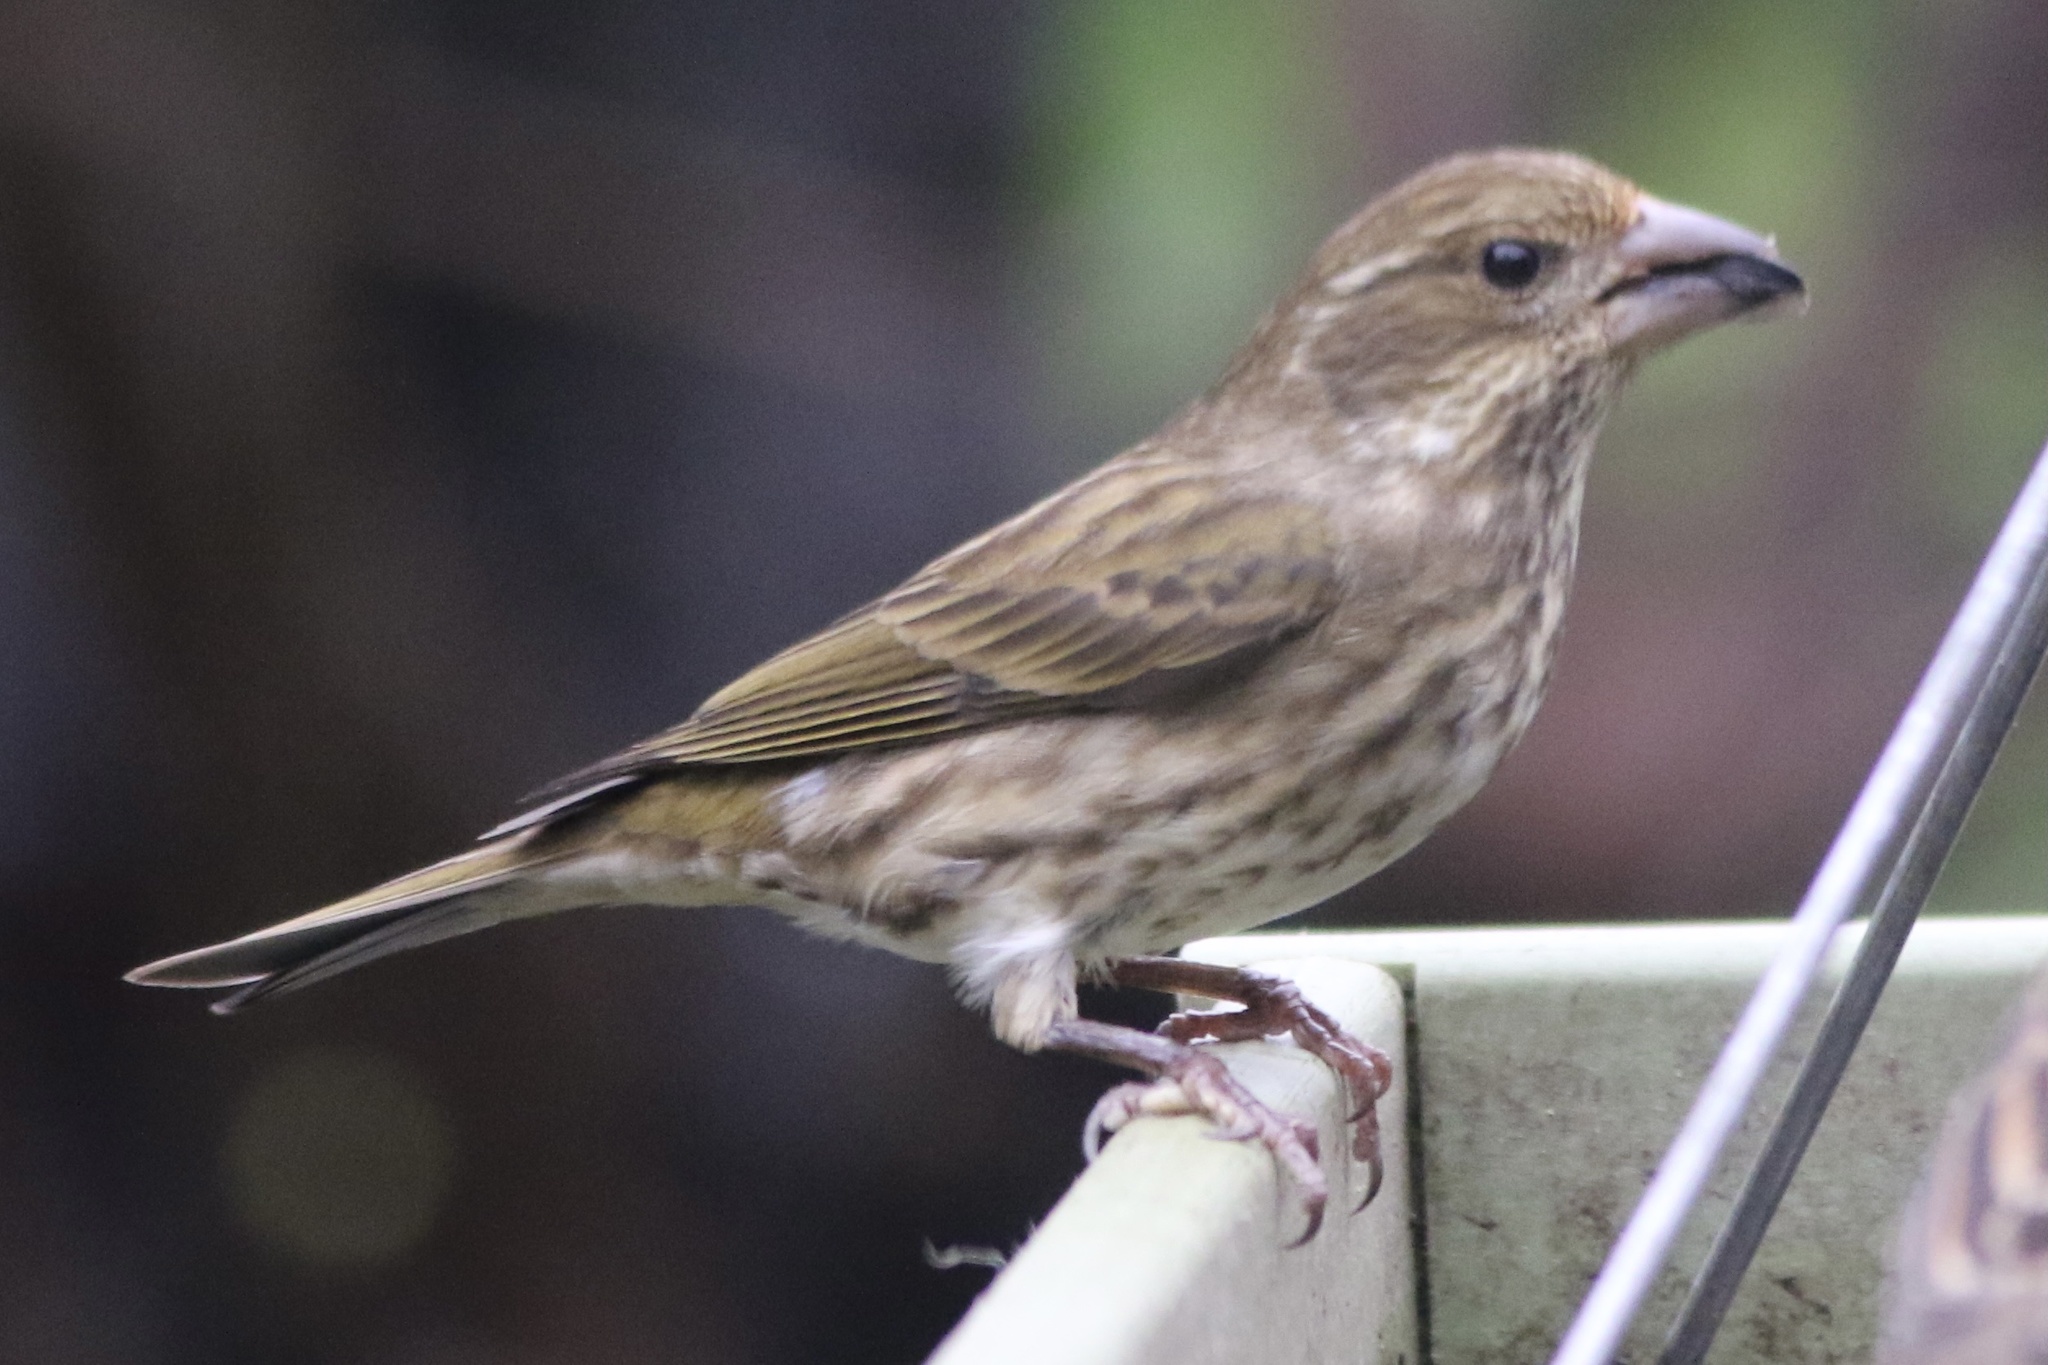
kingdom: Animalia
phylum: Chordata
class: Aves
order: Passeriformes
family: Fringillidae
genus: Haemorhous
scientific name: Haemorhous purpureus
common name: Purple finch
